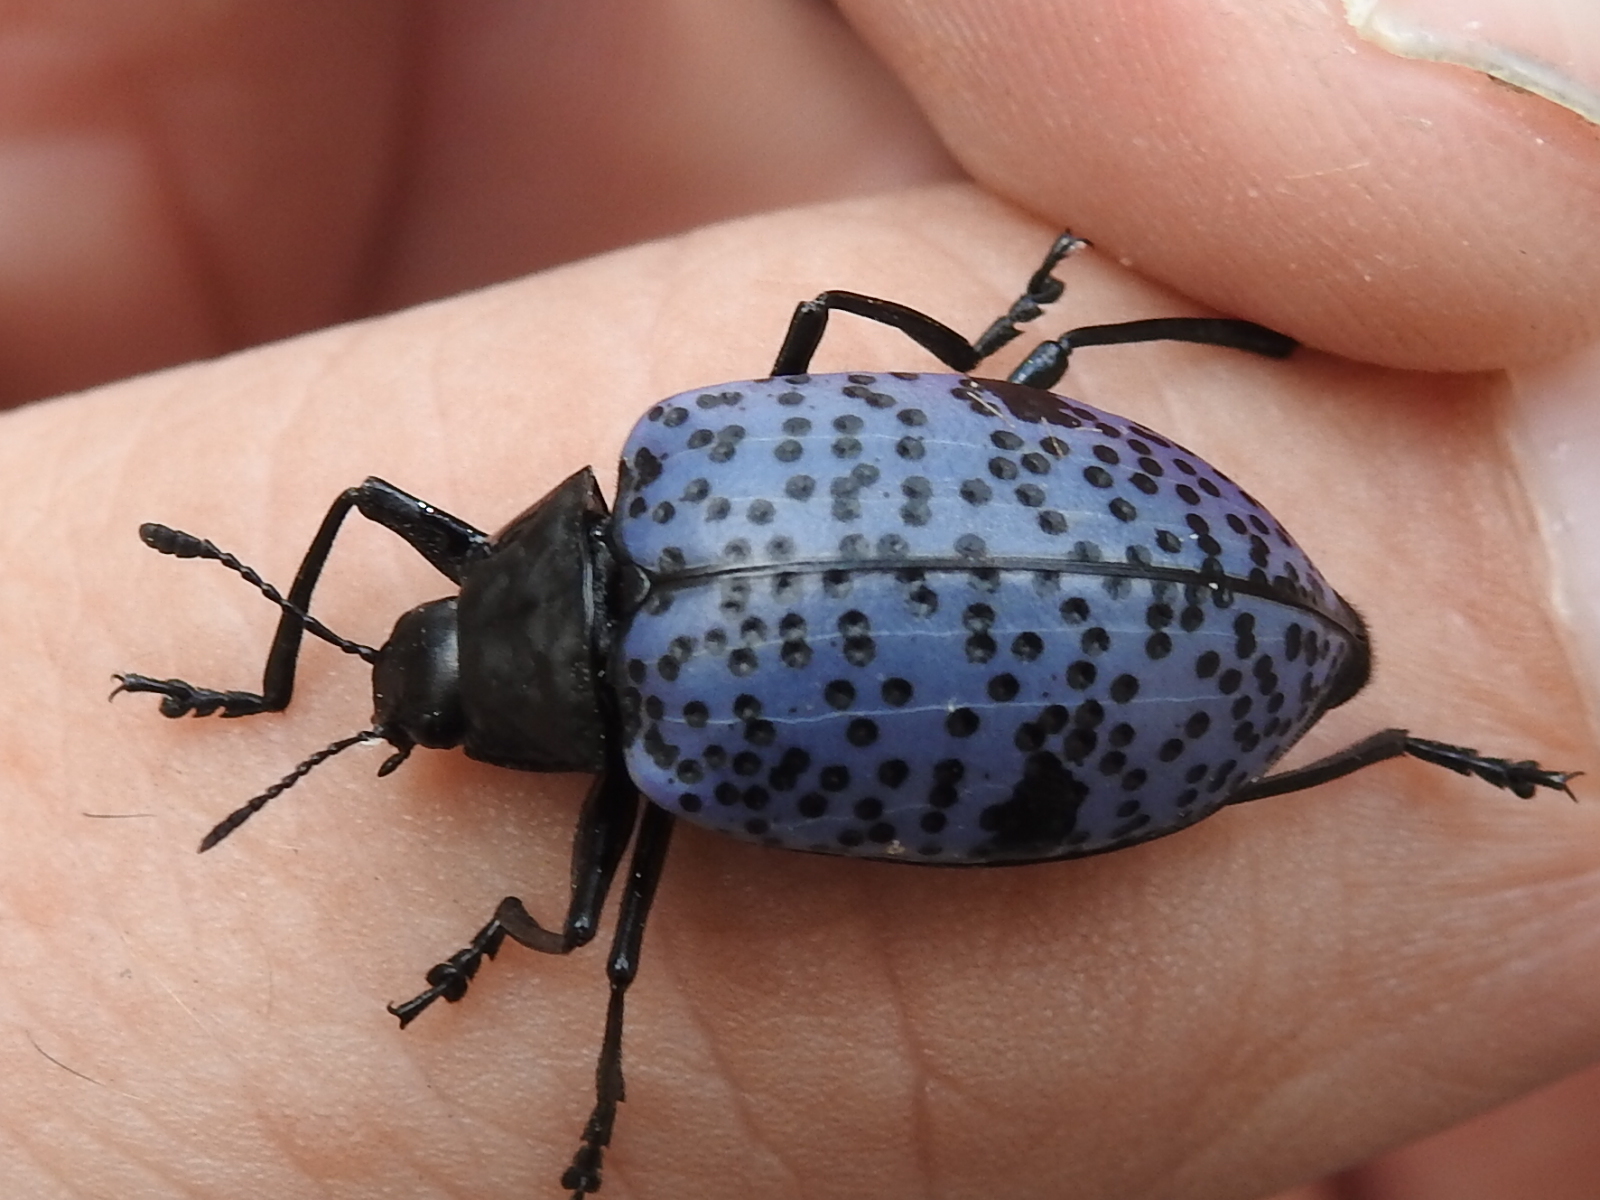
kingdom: Animalia
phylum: Arthropoda
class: Insecta
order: Coleoptera
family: Erotylidae
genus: Gibbifer
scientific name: Gibbifer californicus
